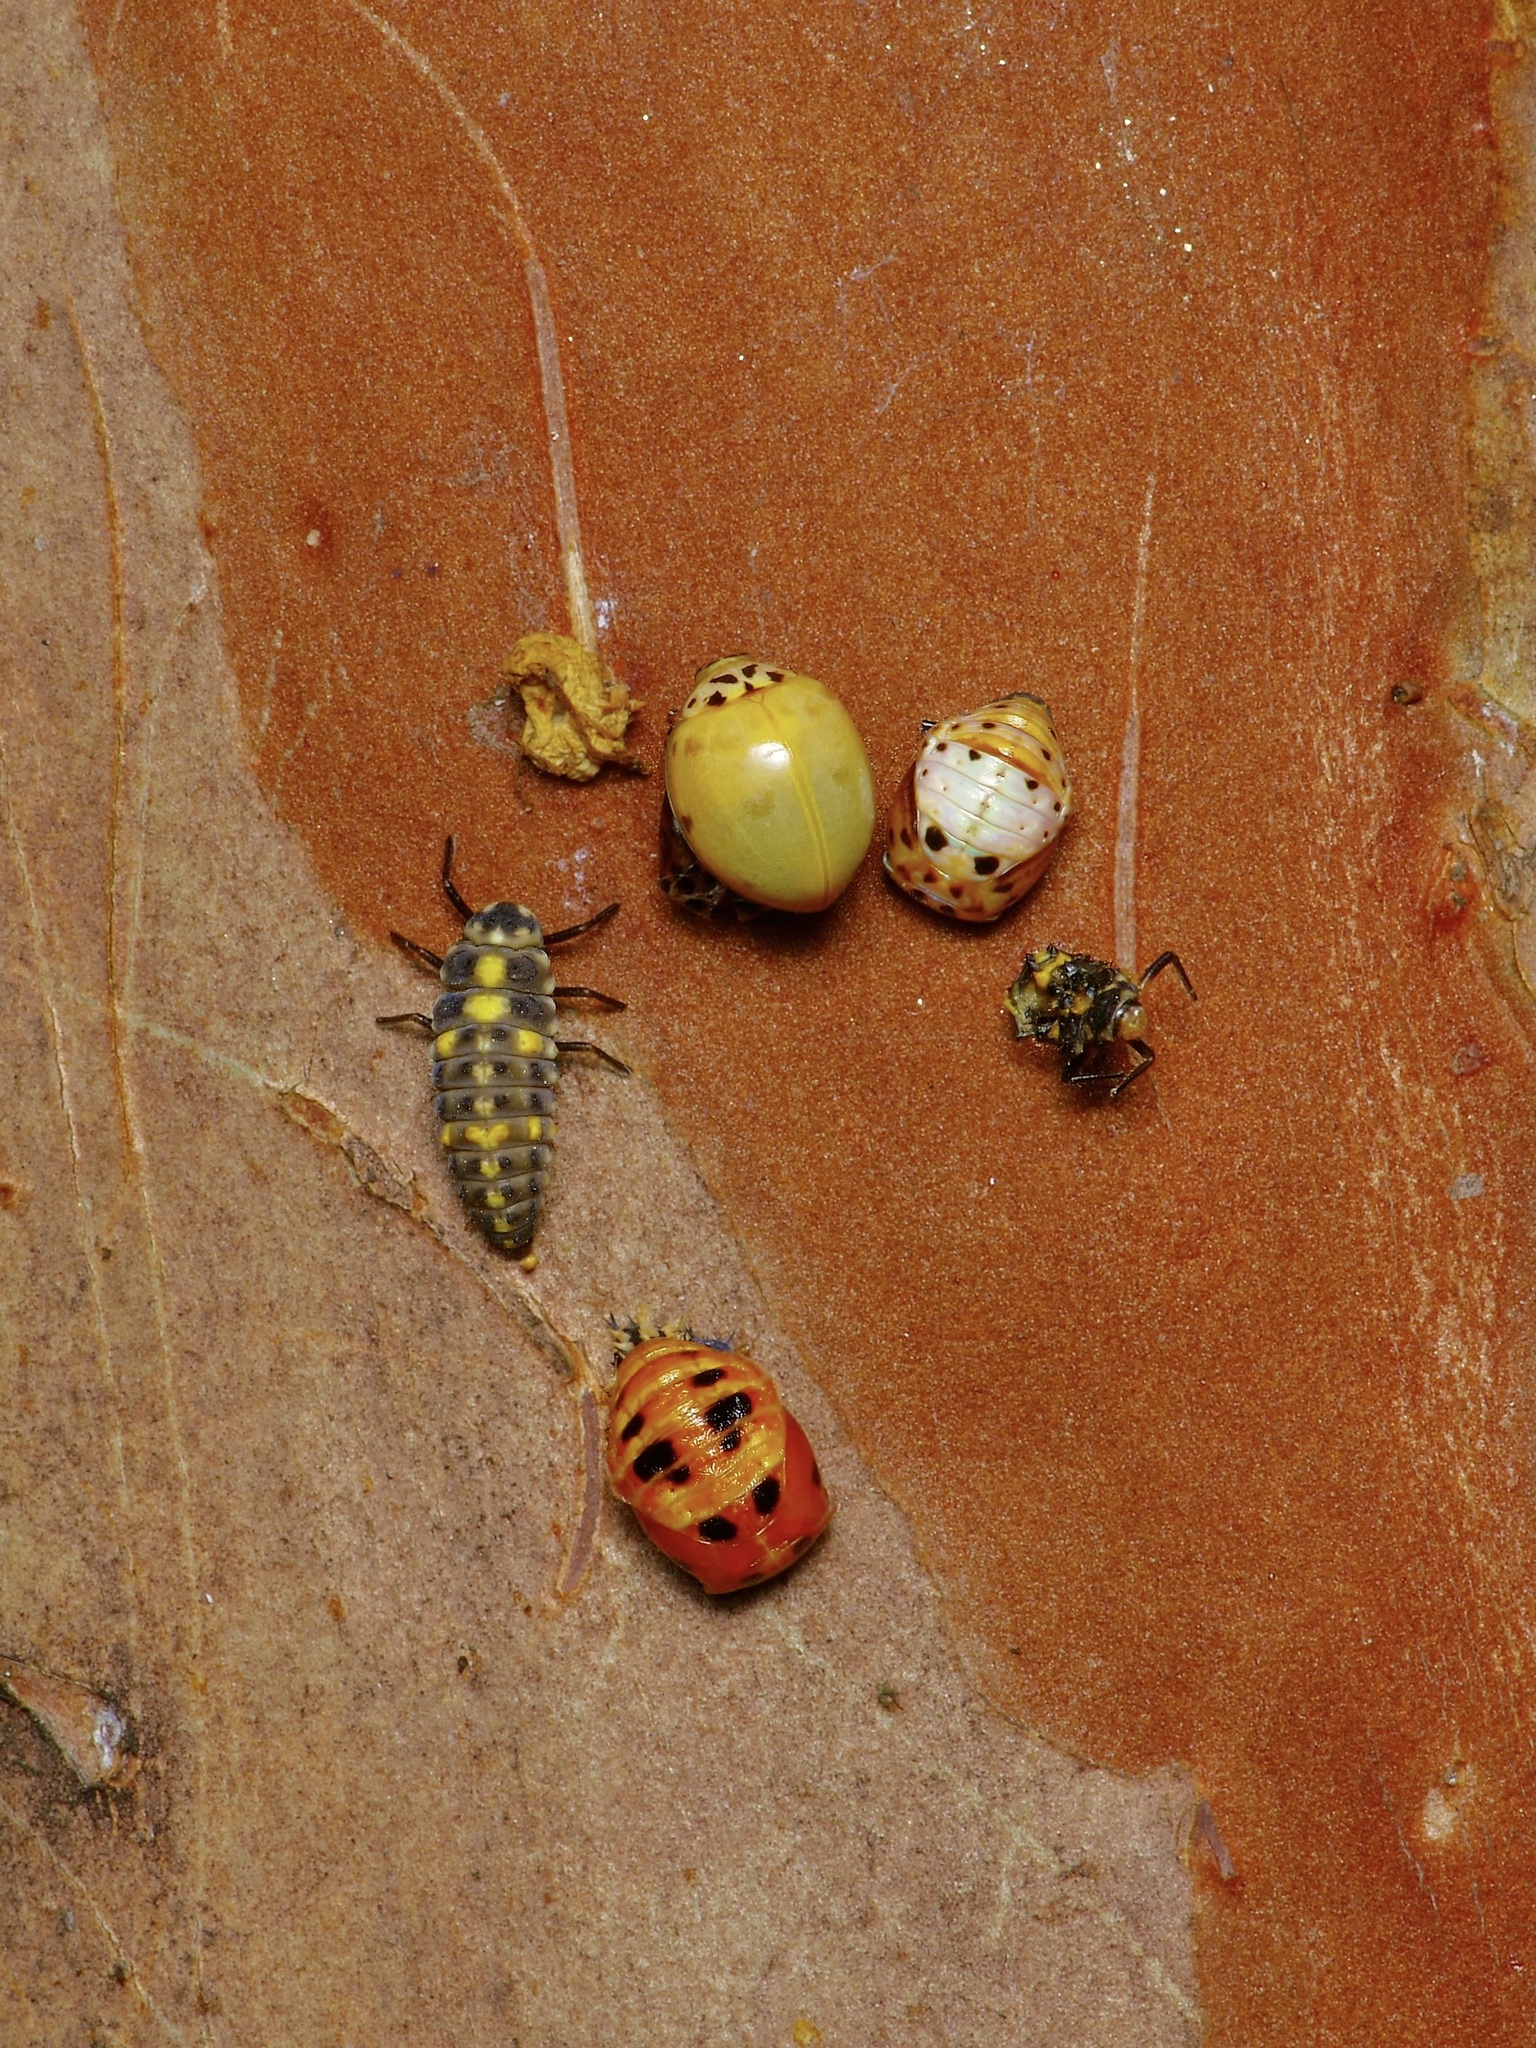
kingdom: Animalia
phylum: Arthropoda
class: Insecta
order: Coleoptera
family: Coccinellidae
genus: Harmonia
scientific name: Harmonia axyridis
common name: Harlequin ladybird
